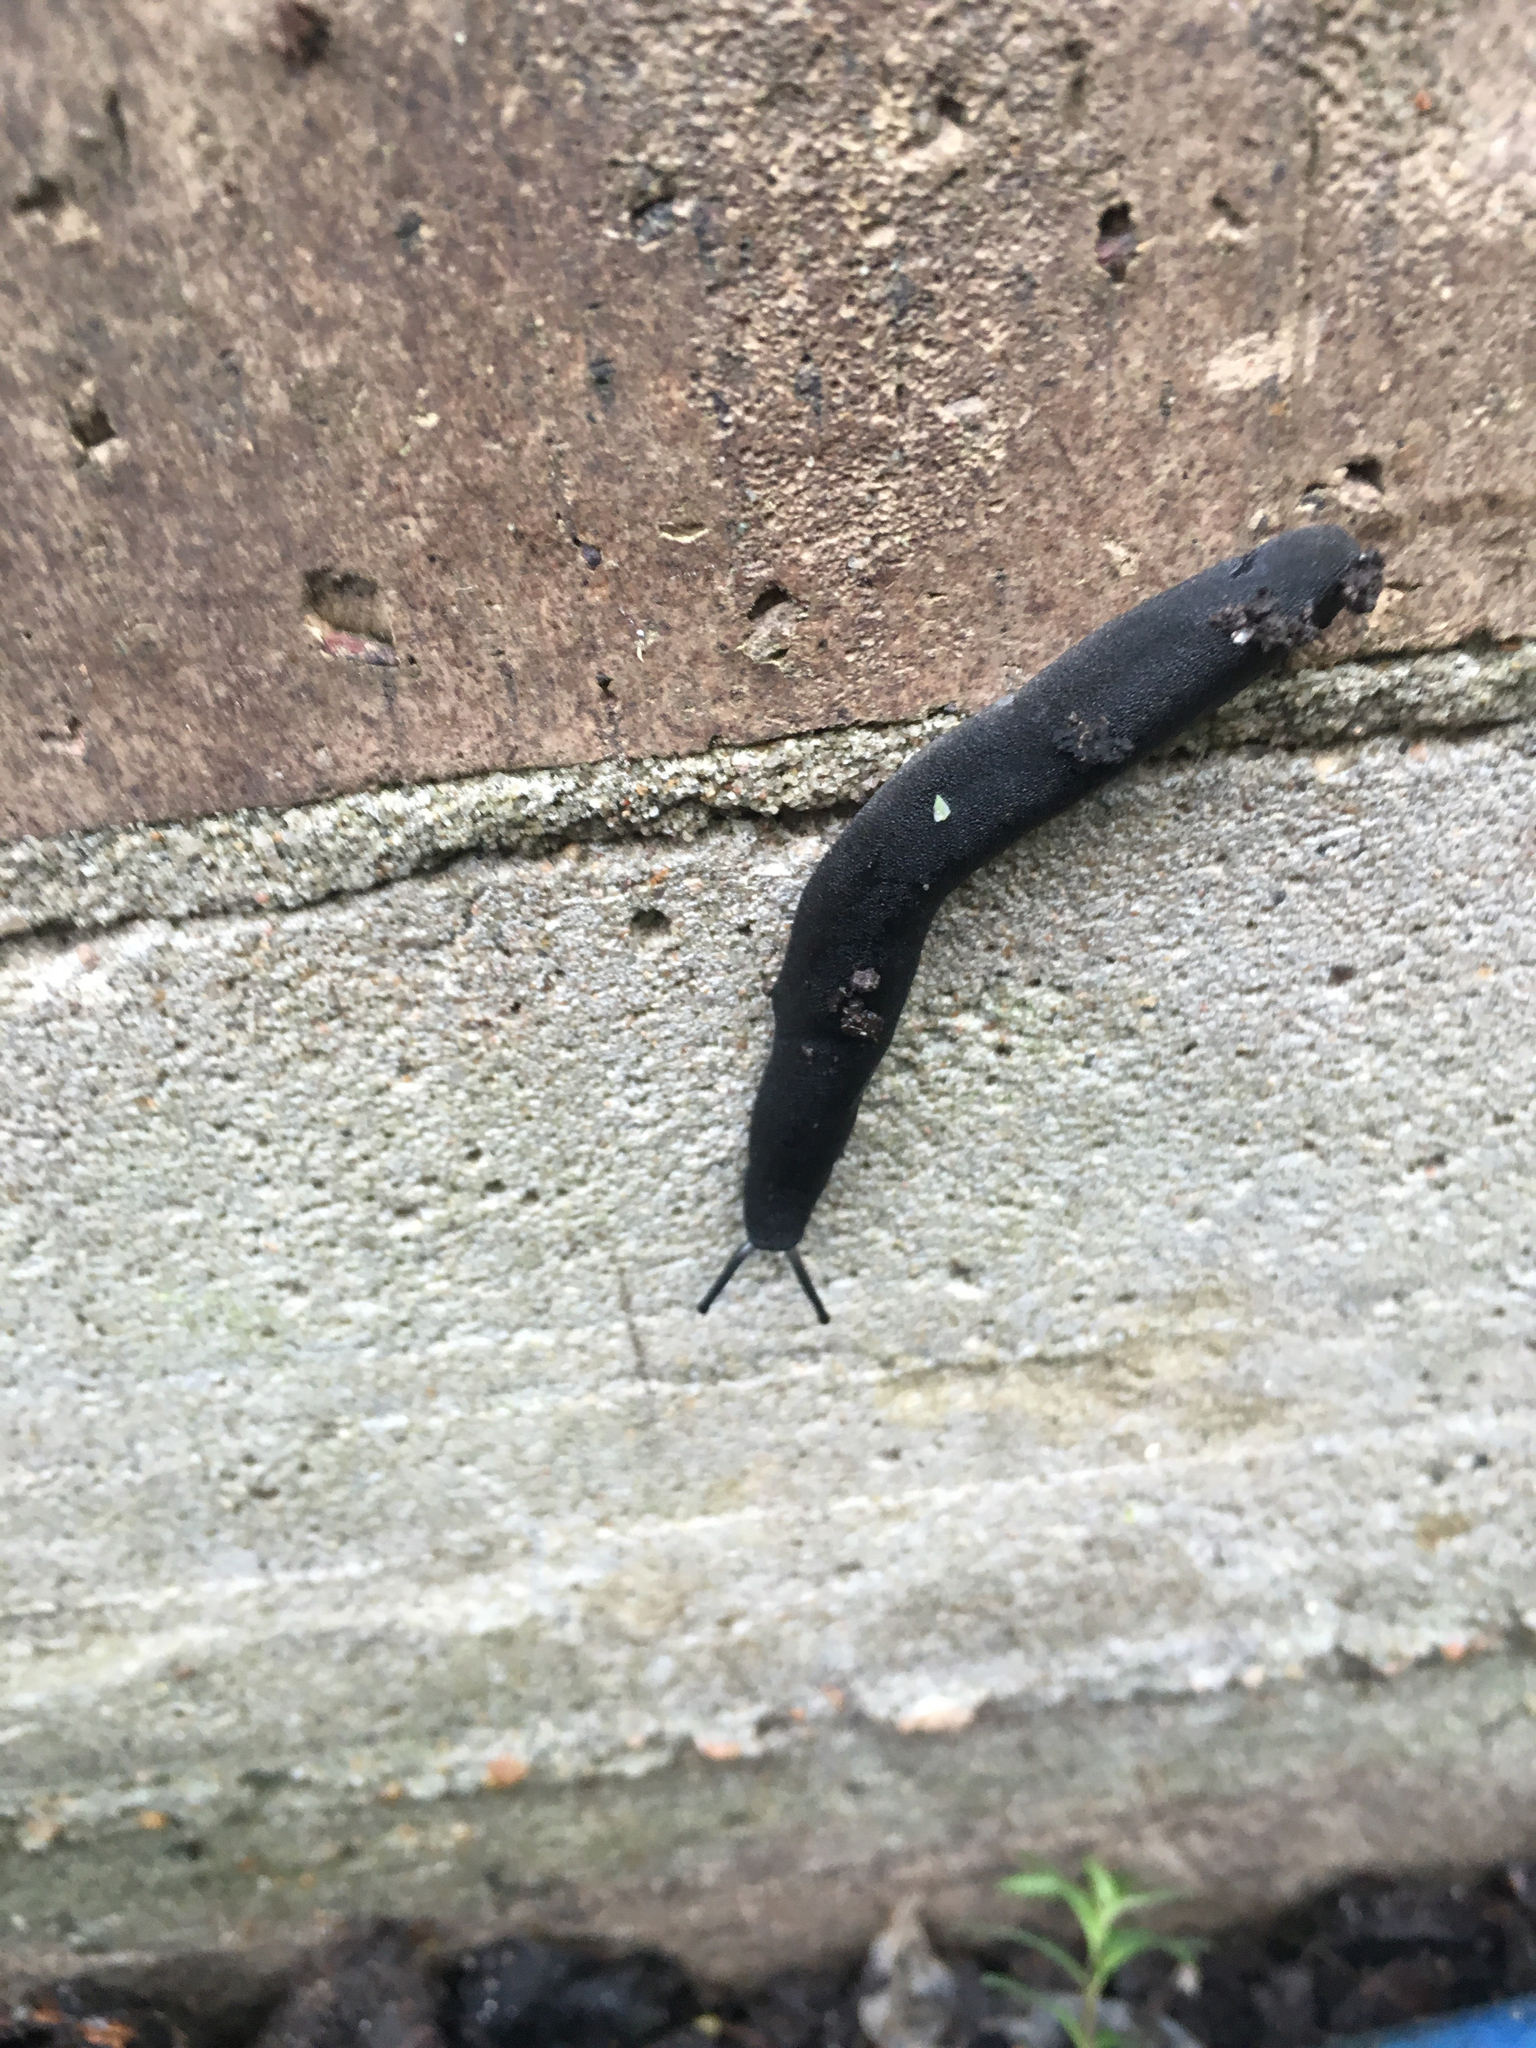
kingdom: Animalia
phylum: Mollusca
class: Gastropoda
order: Systellommatophora
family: Veronicellidae
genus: Belocaulus
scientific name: Belocaulus angustipes
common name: Black velvet leatherleaf slug
